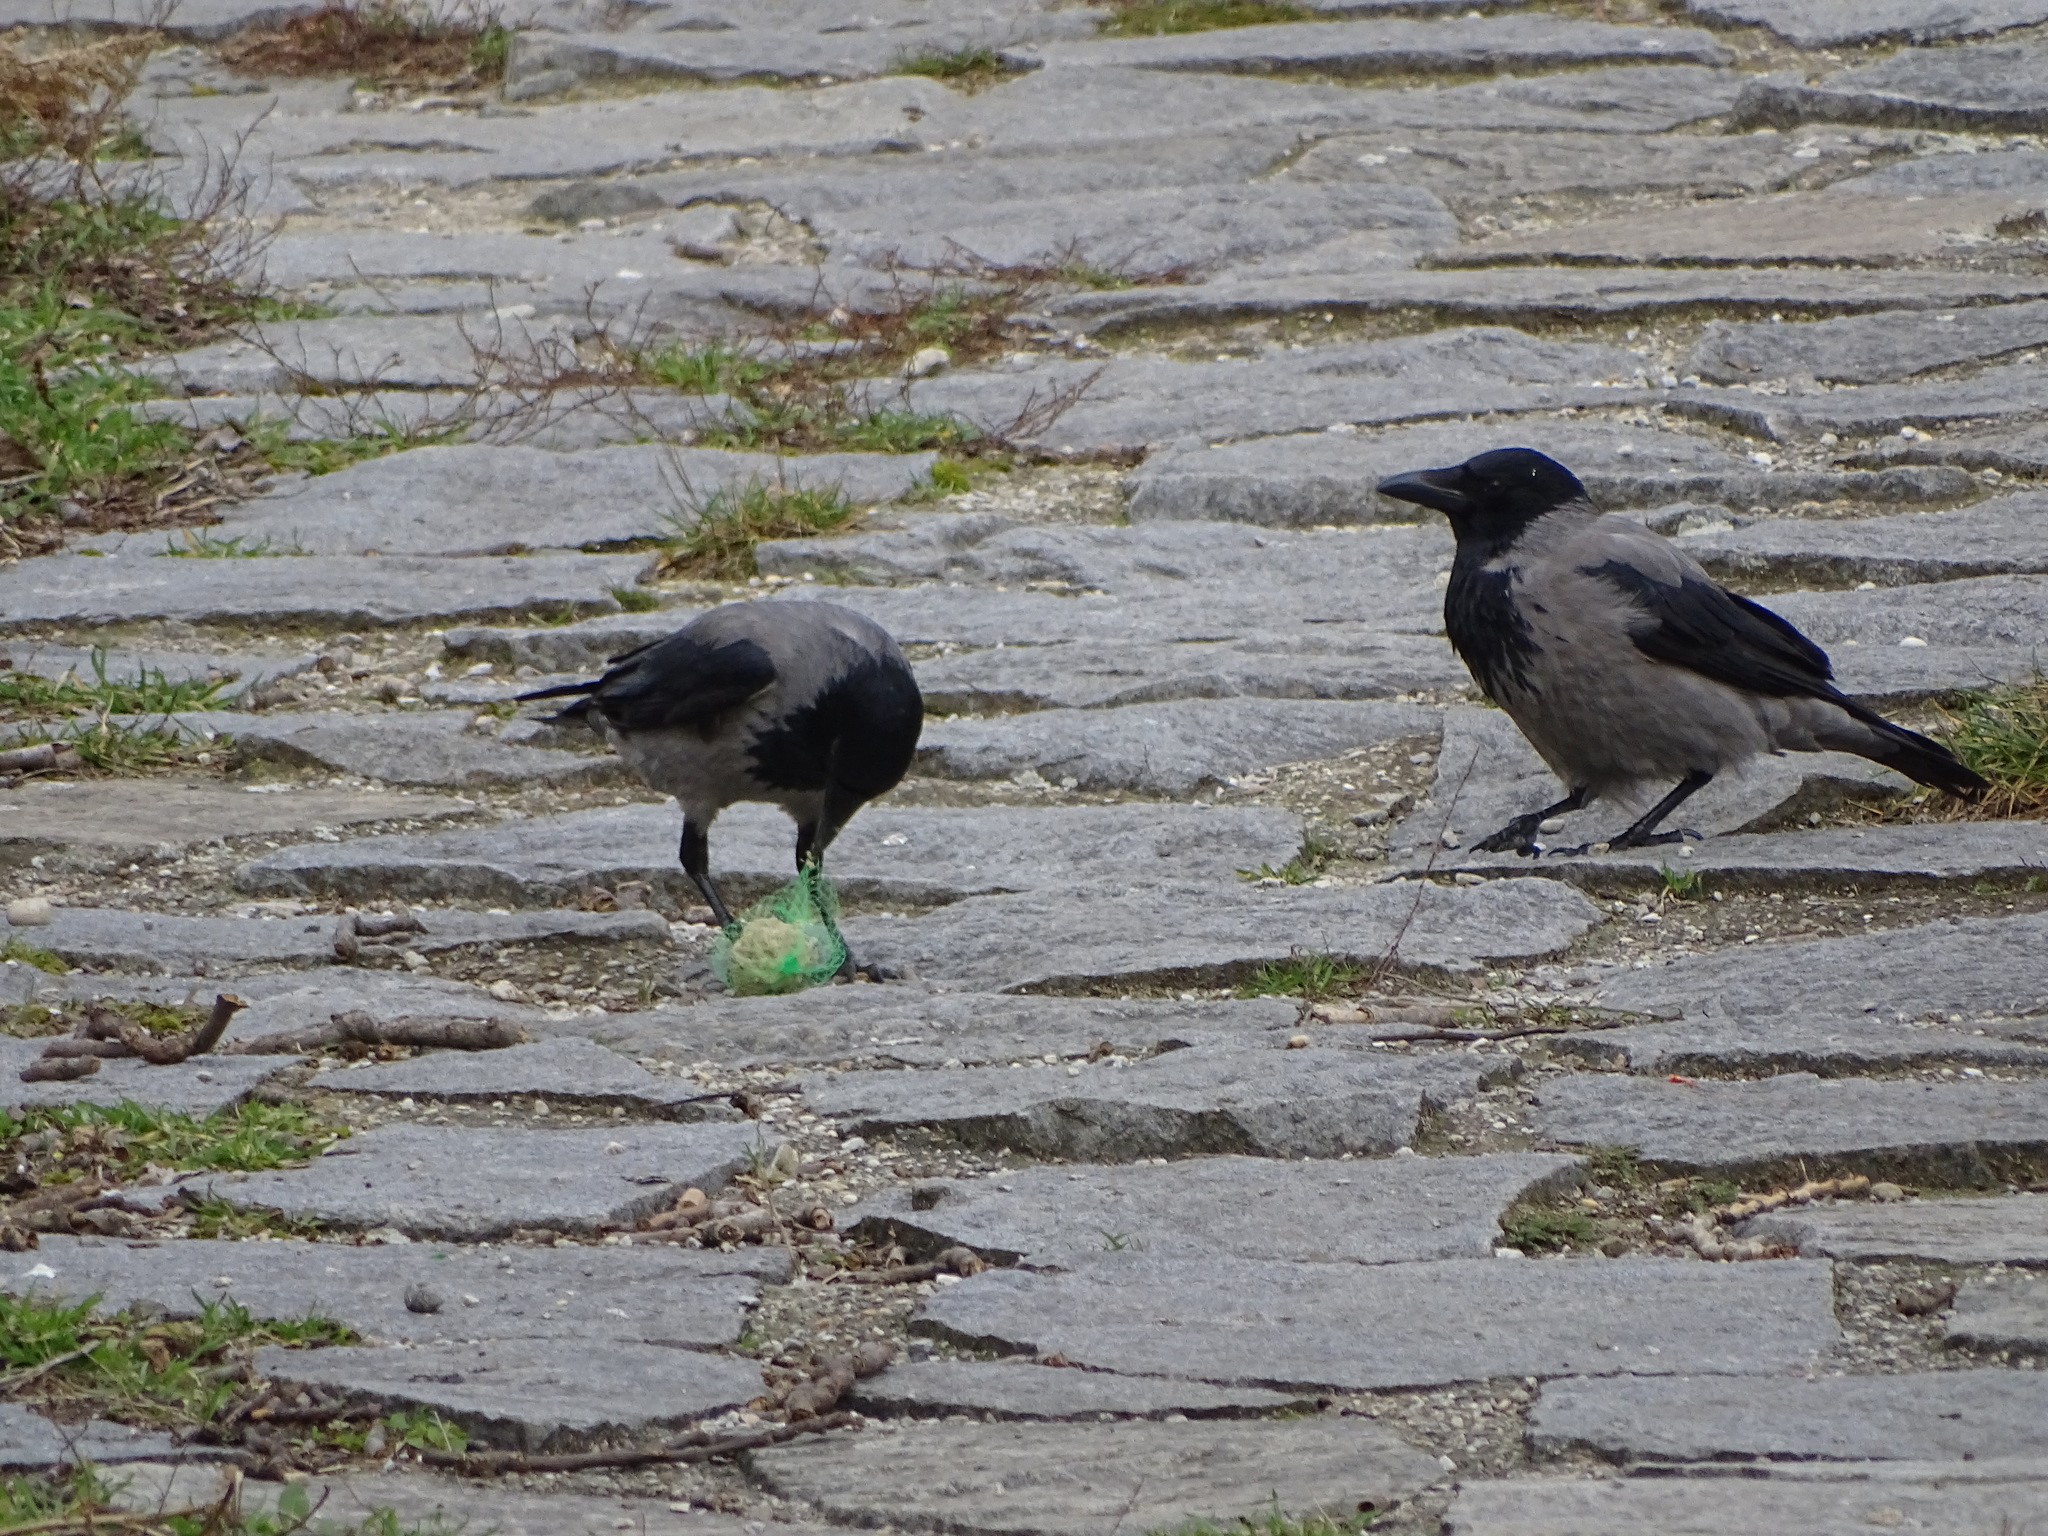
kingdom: Animalia
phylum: Chordata
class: Aves
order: Passeriformes
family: Corvidae
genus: Corvus
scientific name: Corvus cornix
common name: Hooded crow
